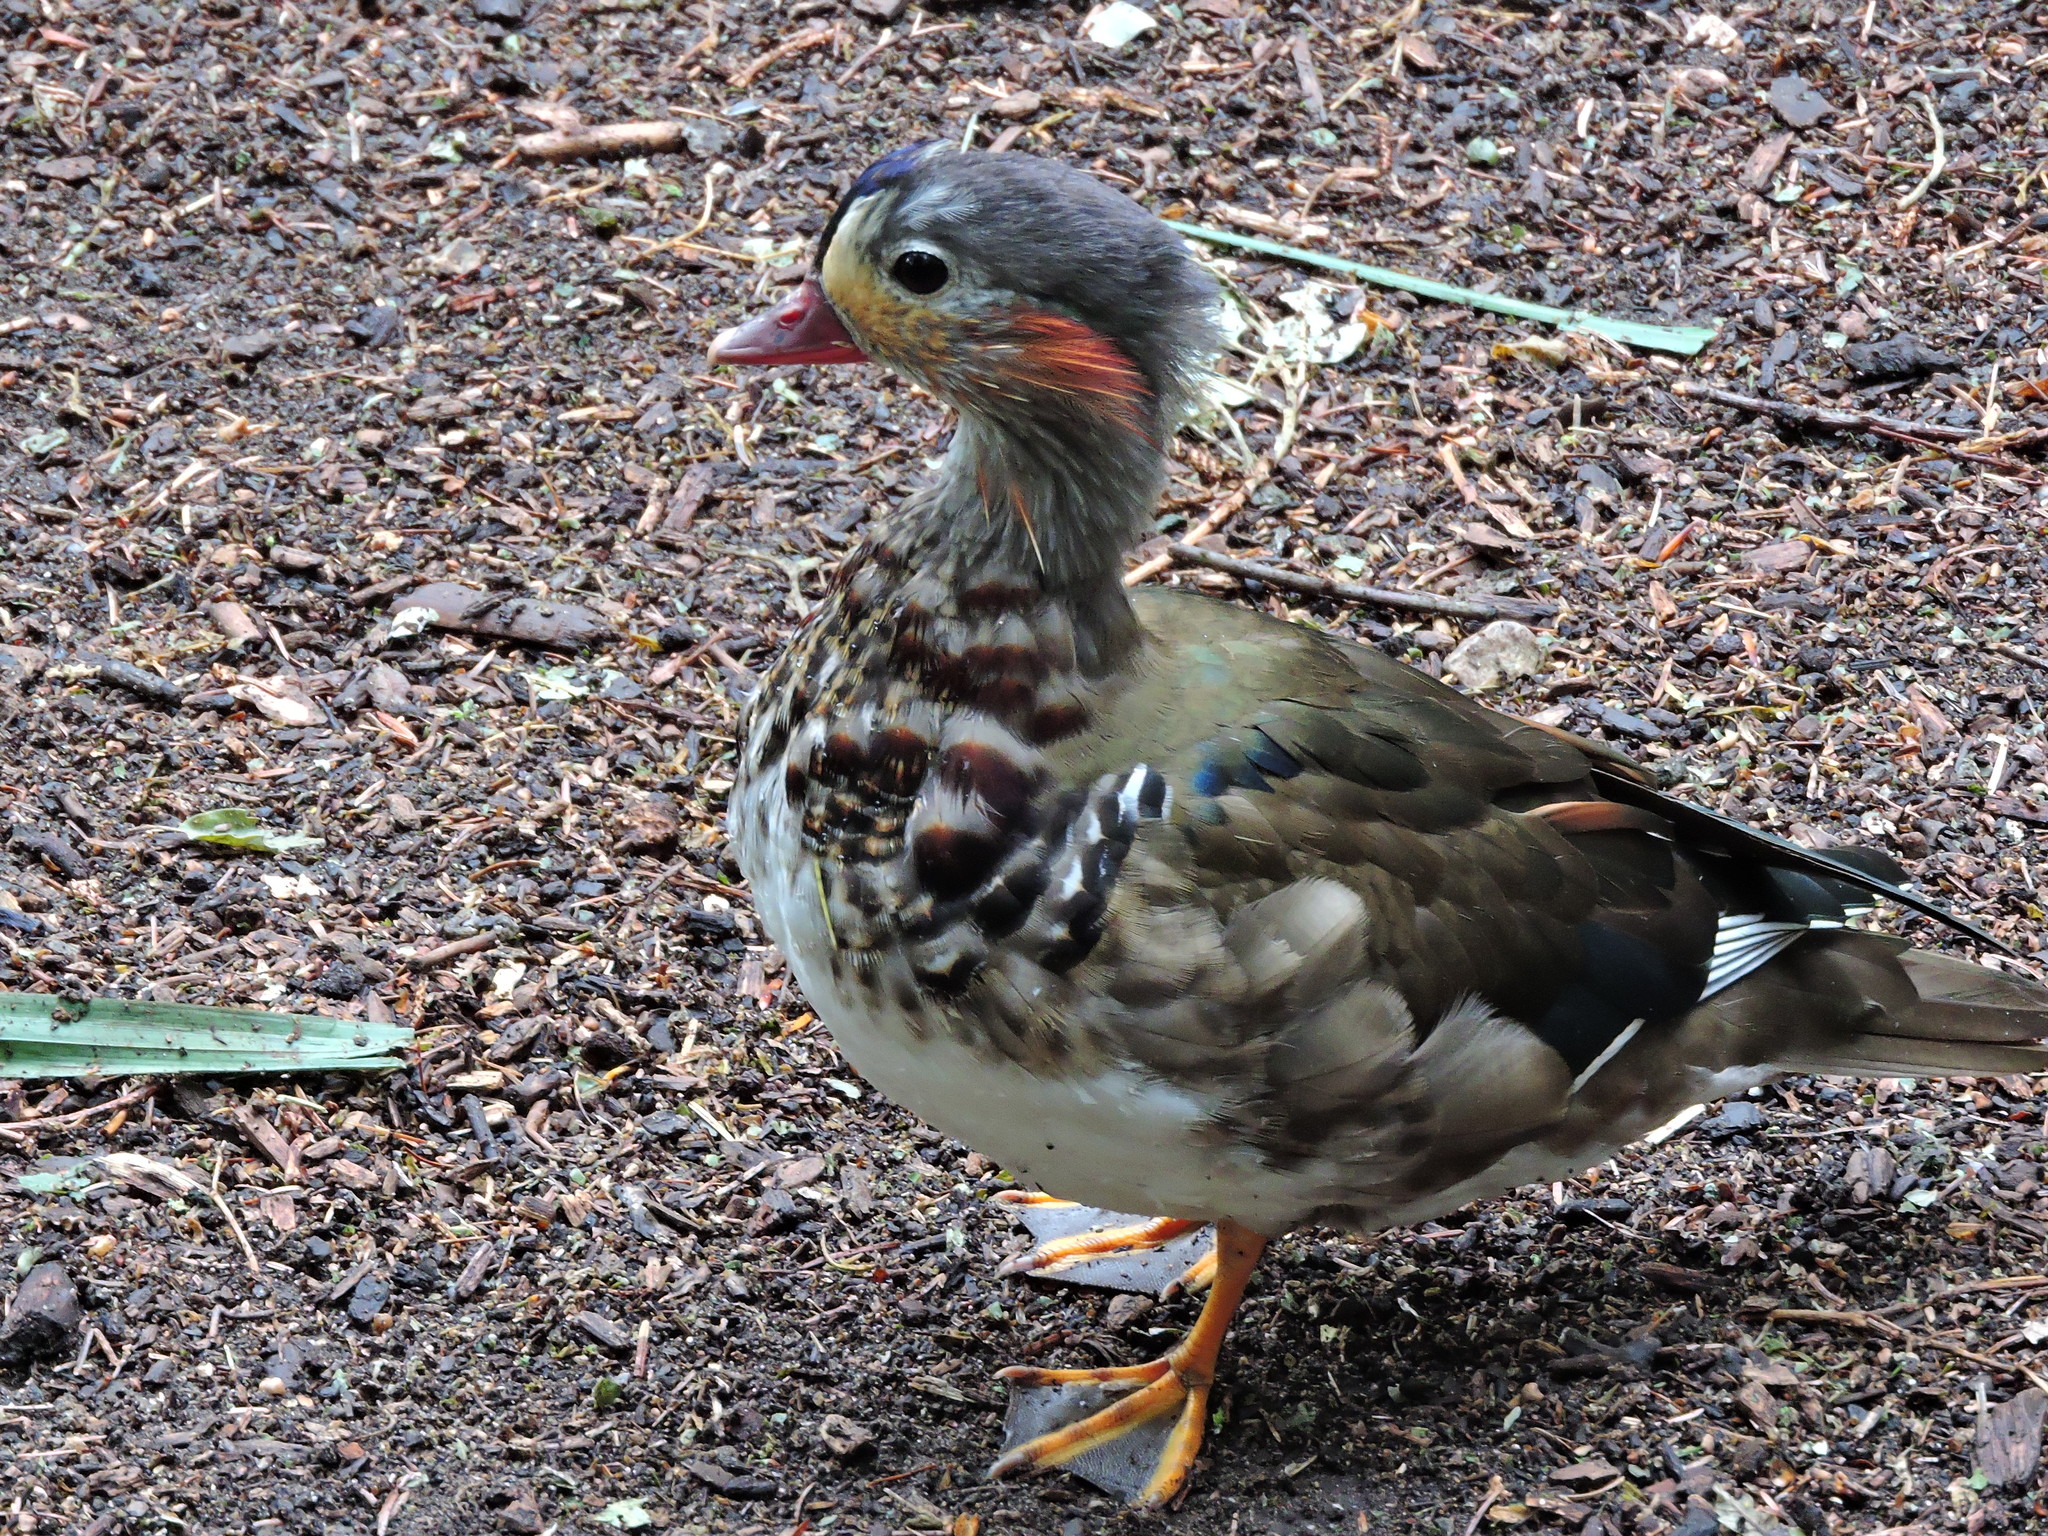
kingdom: Animalia
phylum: Chordata
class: Aves
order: Anseriformes
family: Anatidae
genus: Aix
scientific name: Aix galericulata
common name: Mandarin duck
